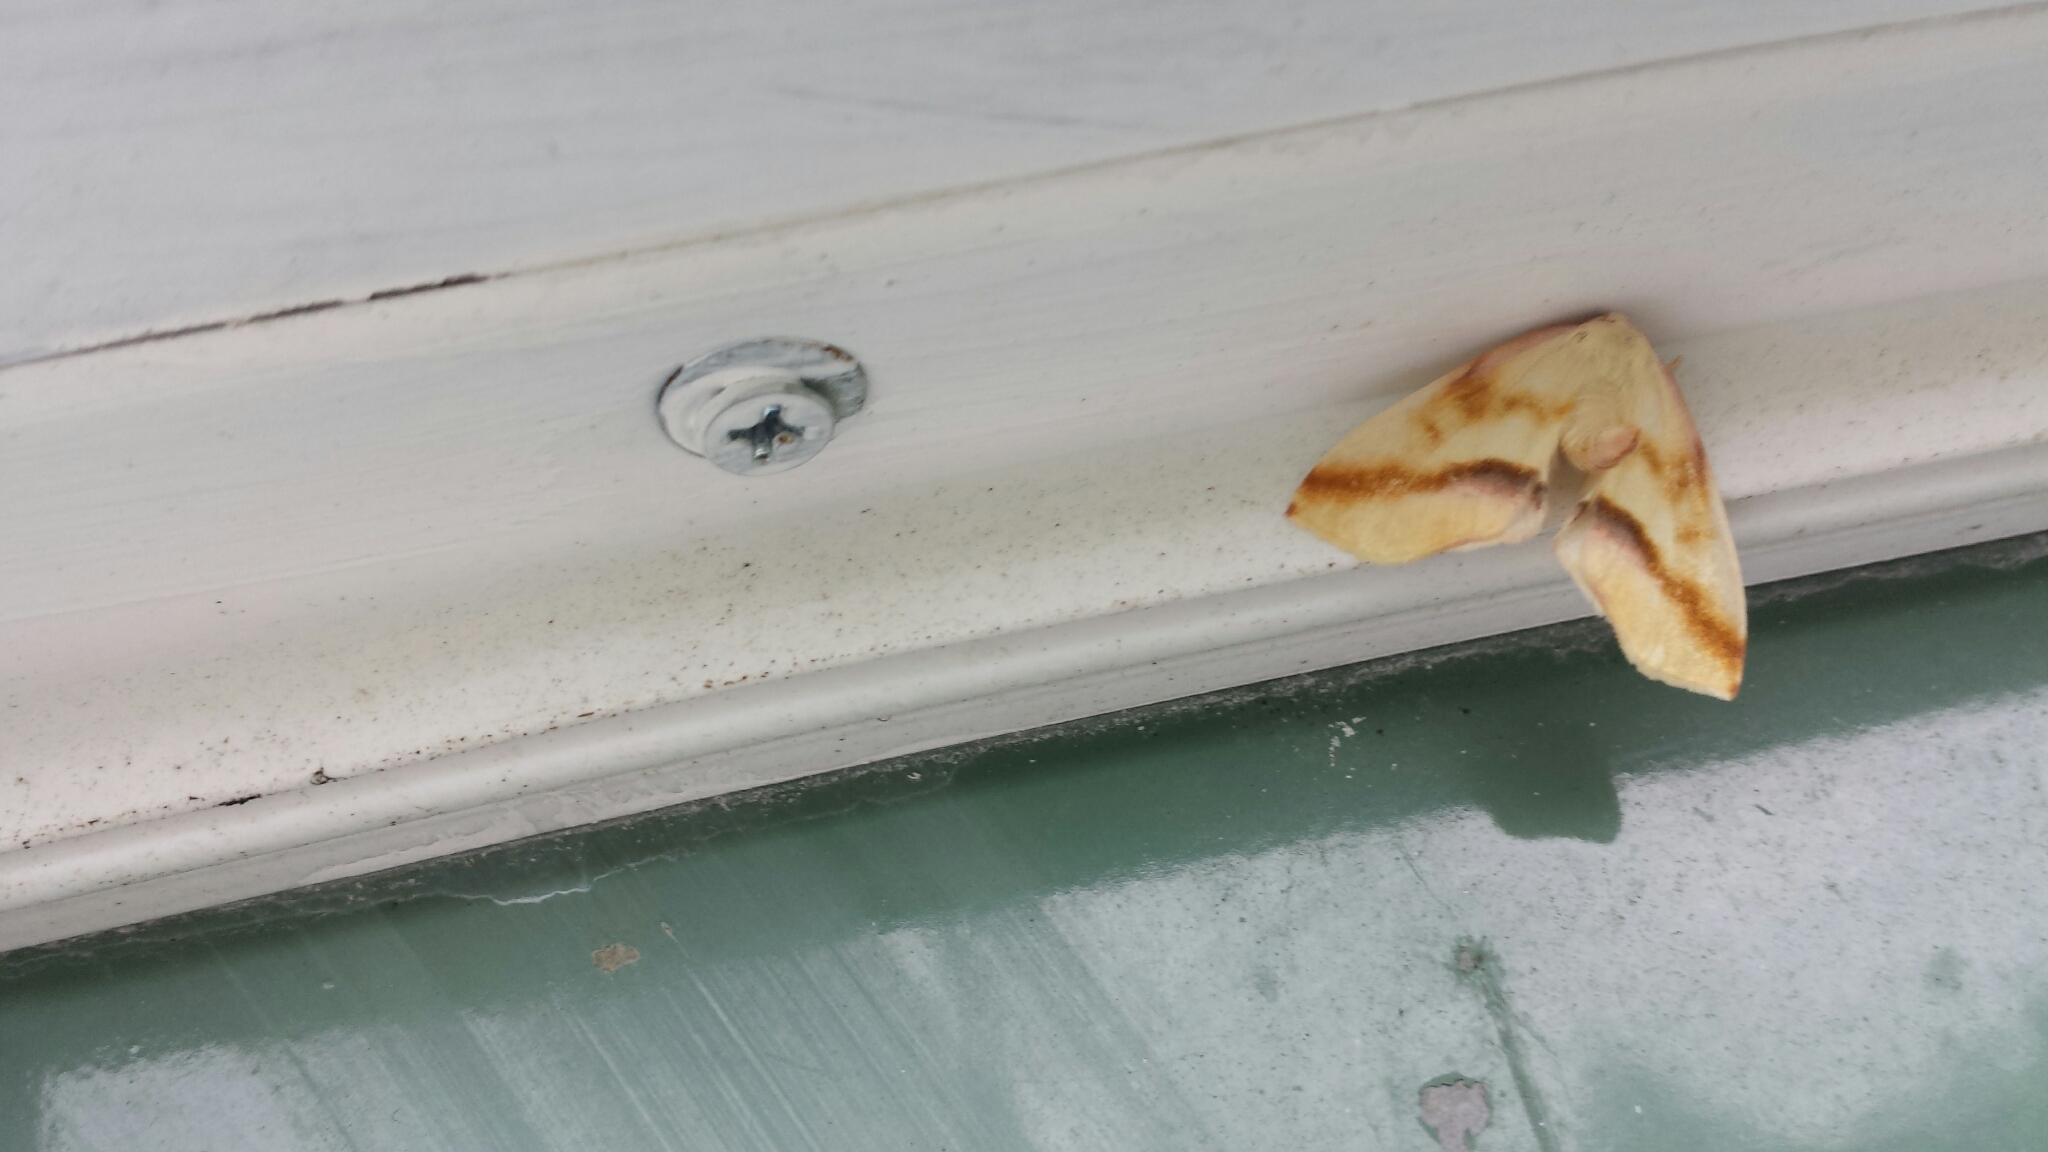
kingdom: Animalia
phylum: Arthropoda
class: Insecta
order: Lepidoptera
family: Geometridae
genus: Plagodis
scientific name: Plagodis serinaria
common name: Lemon plagodis
